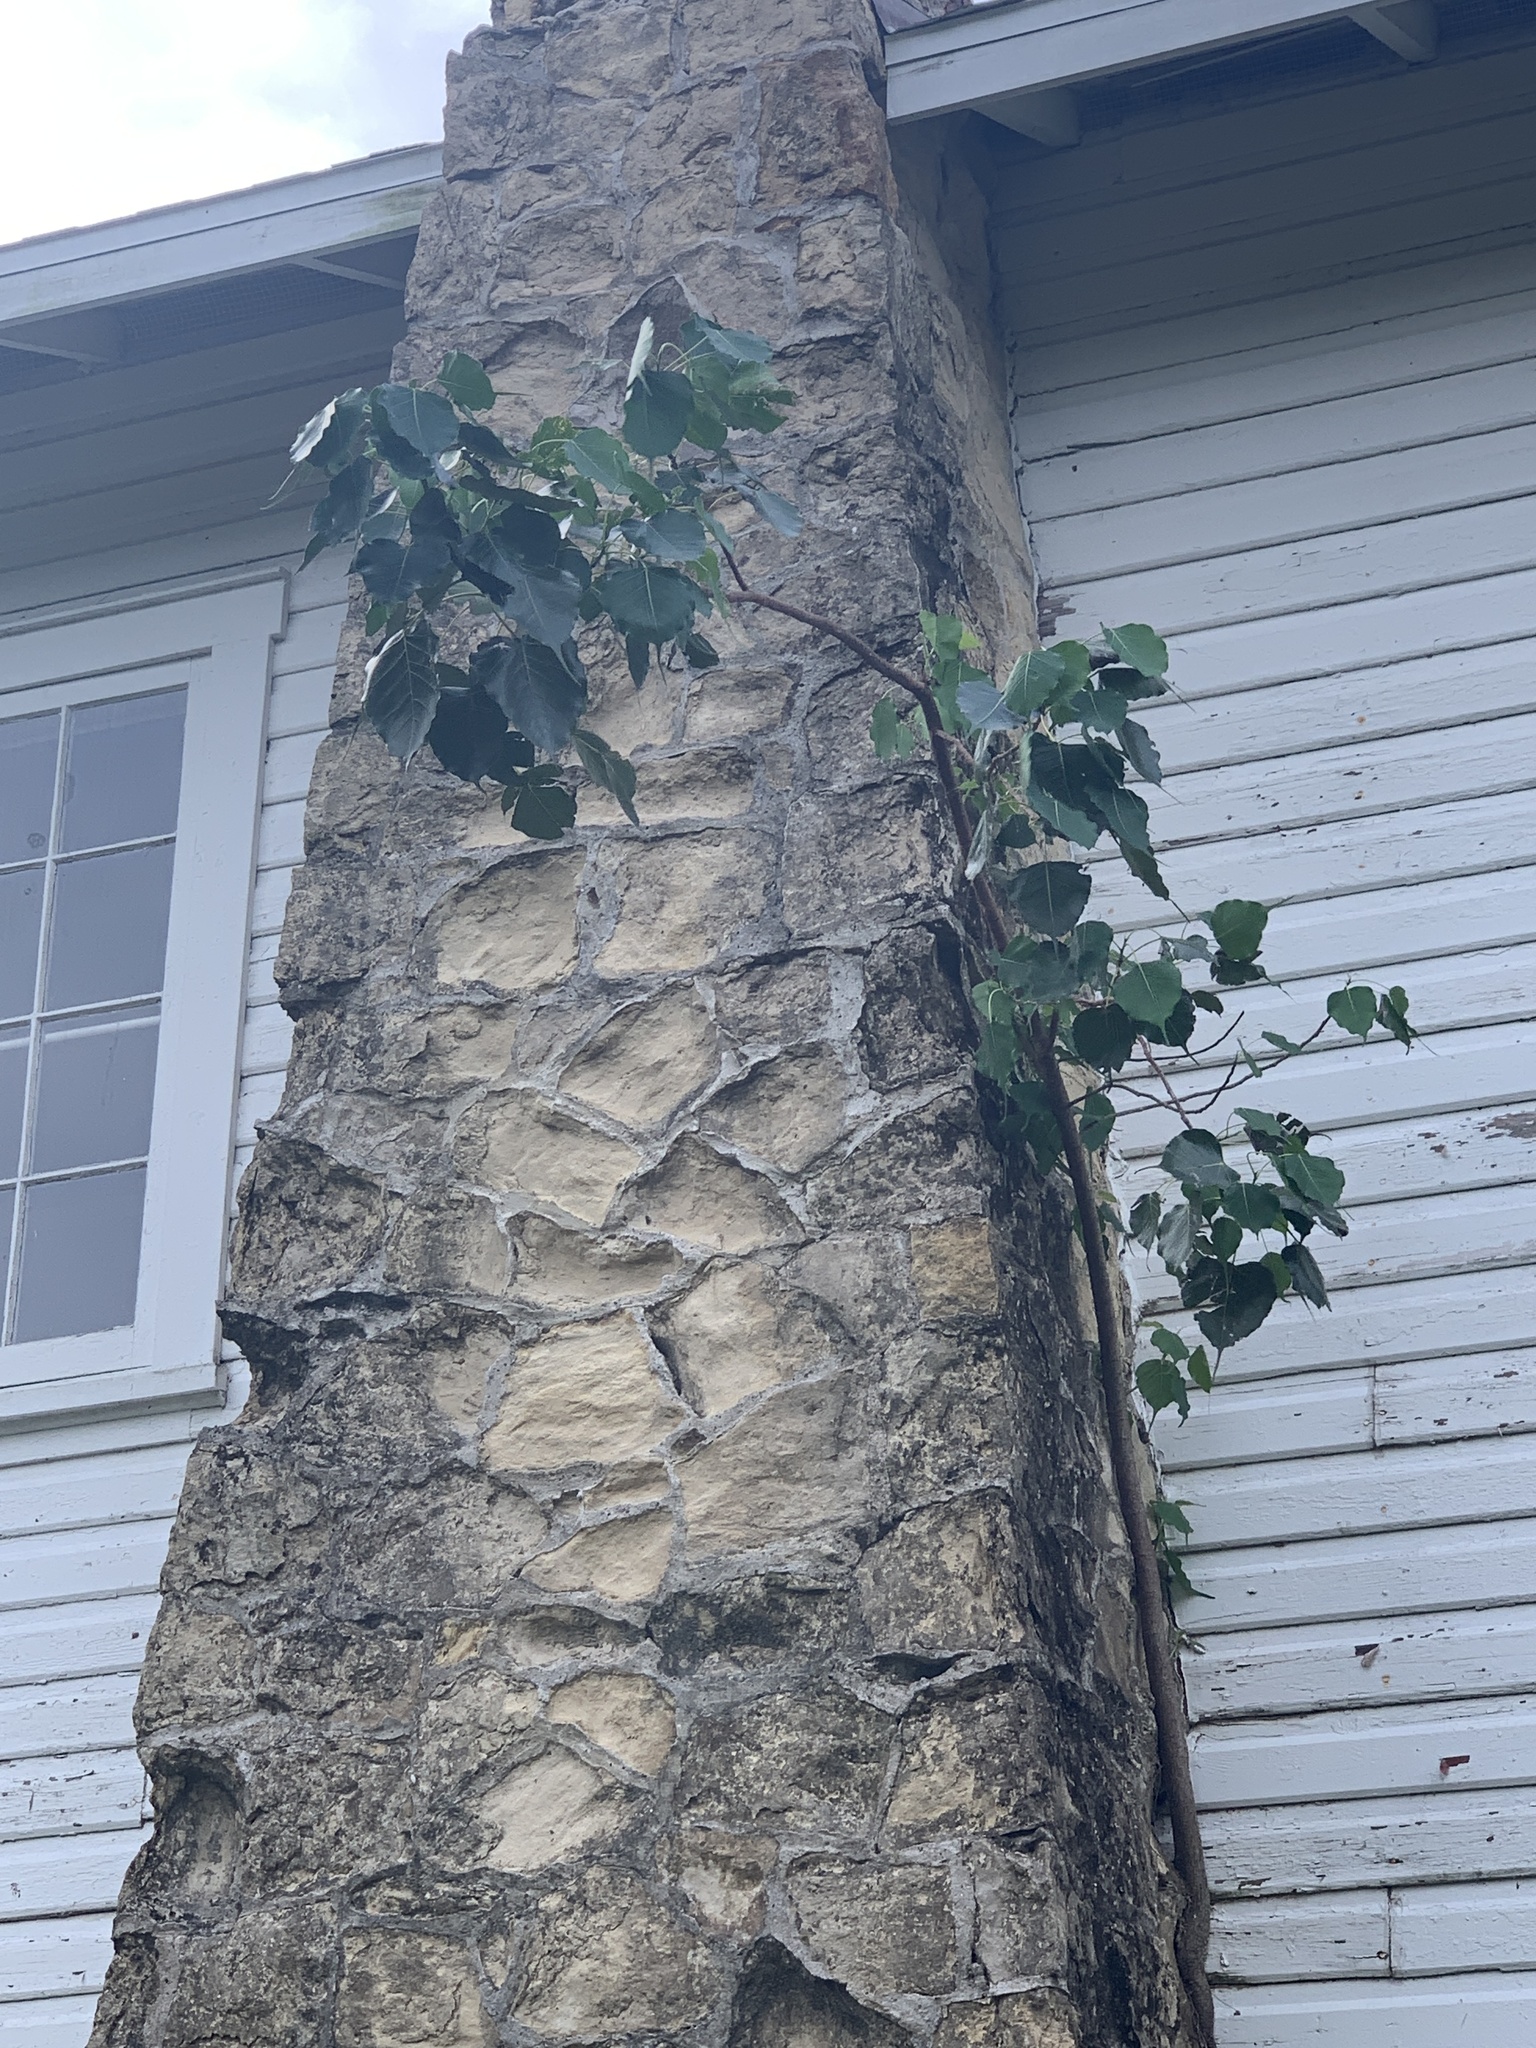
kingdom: Plantae
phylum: Tracheophyta
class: Magnoliopsida
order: Rosales
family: Moraceae
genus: Ficus
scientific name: Ficus religiosa
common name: Bodhi tree
